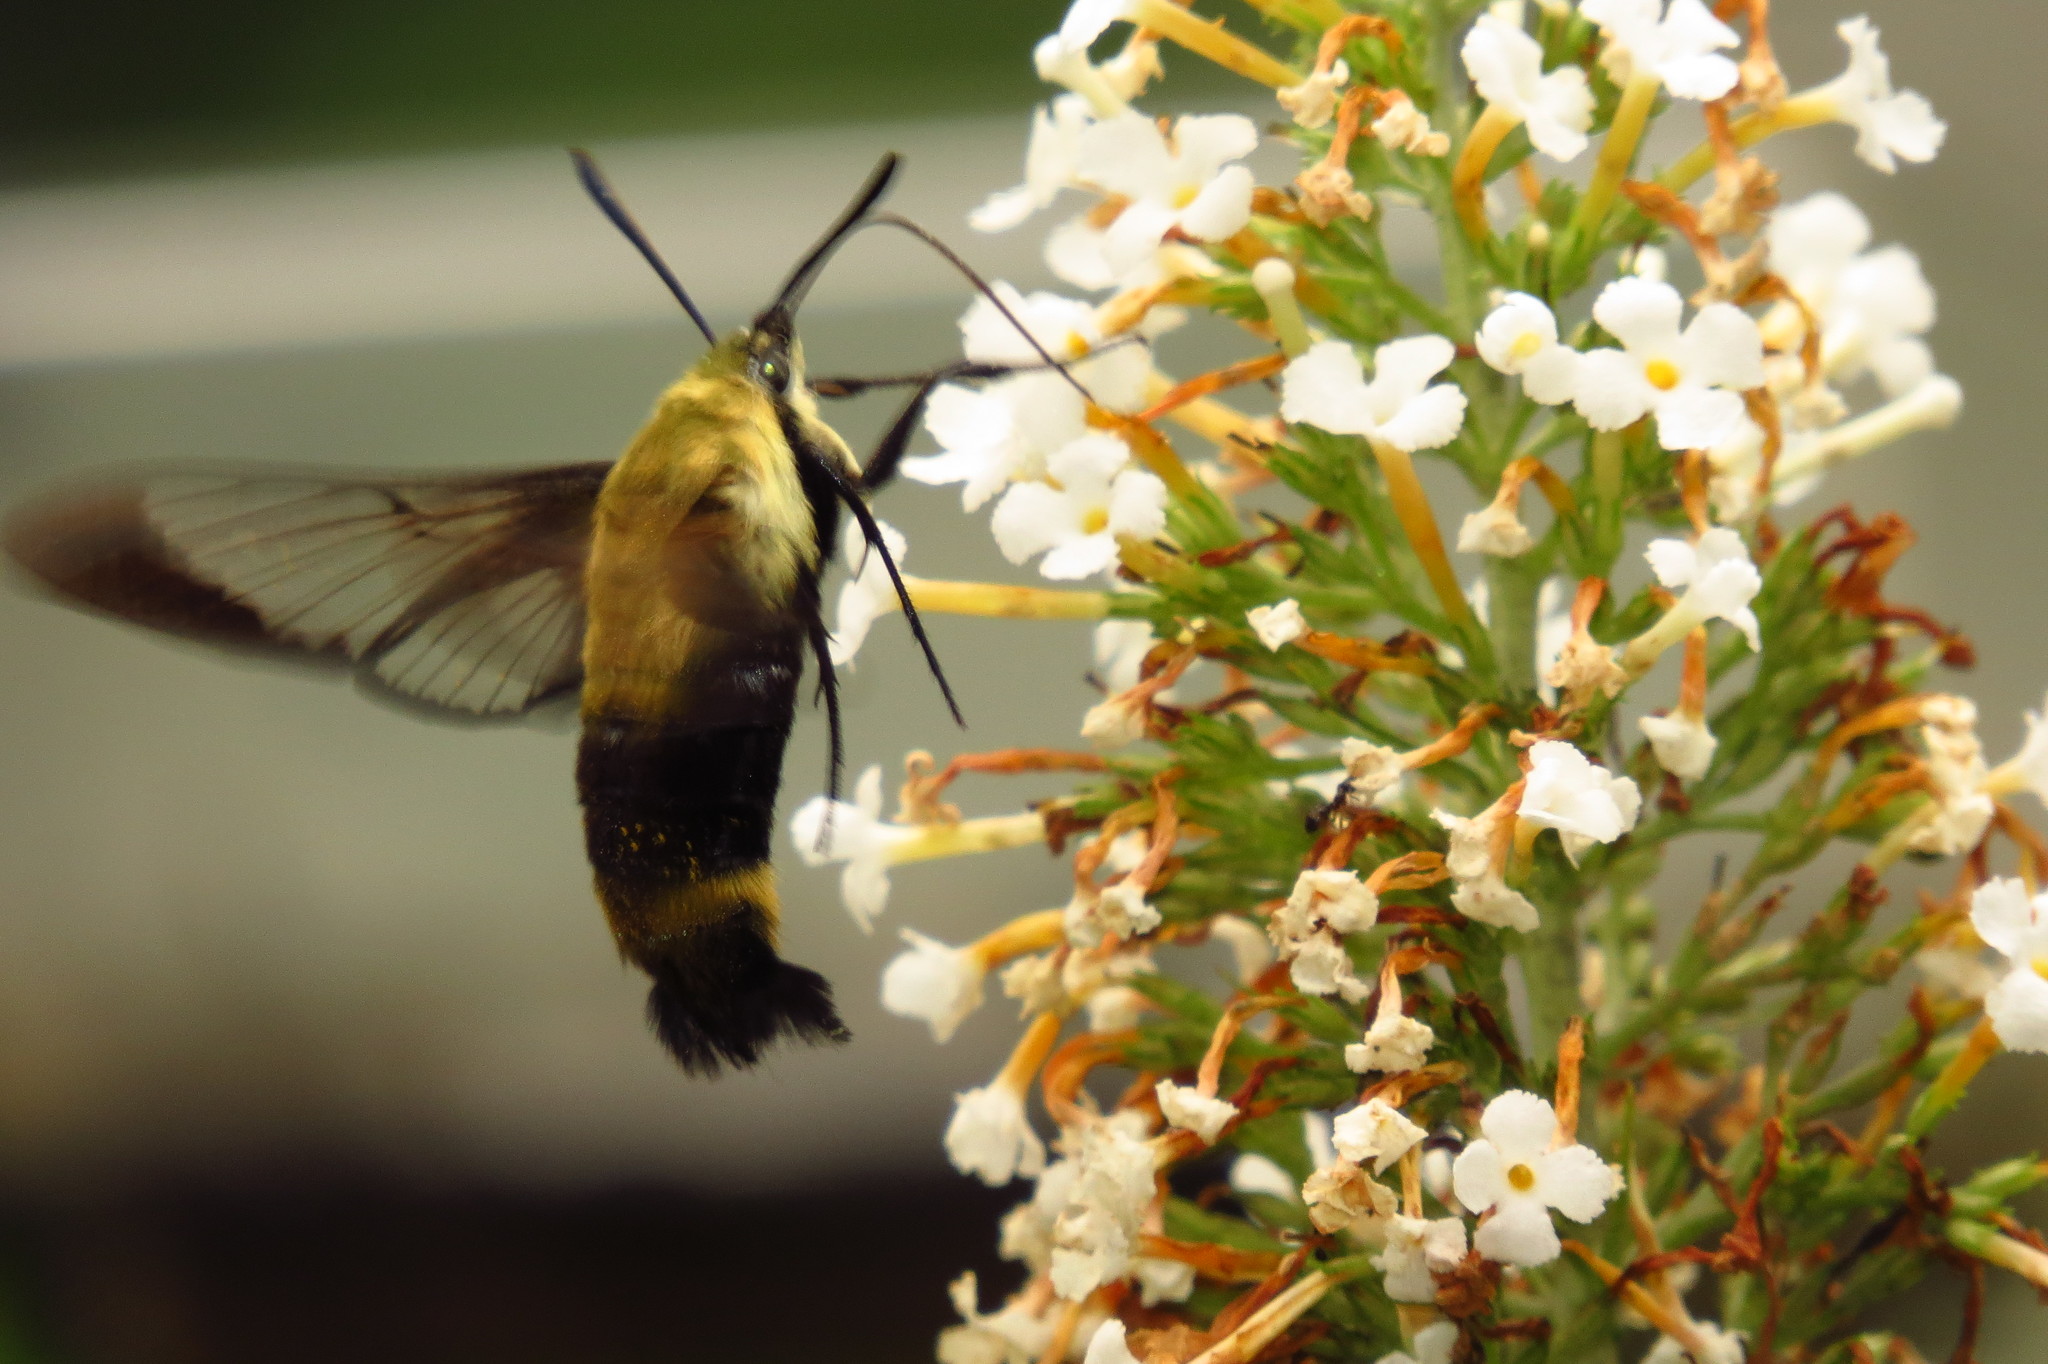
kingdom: Animalia
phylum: Arthropoda
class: Insecta
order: Lepidoptera
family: Sphingidae
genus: Hemaris
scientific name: Hemaris diffinis
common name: Bumblebee moth
